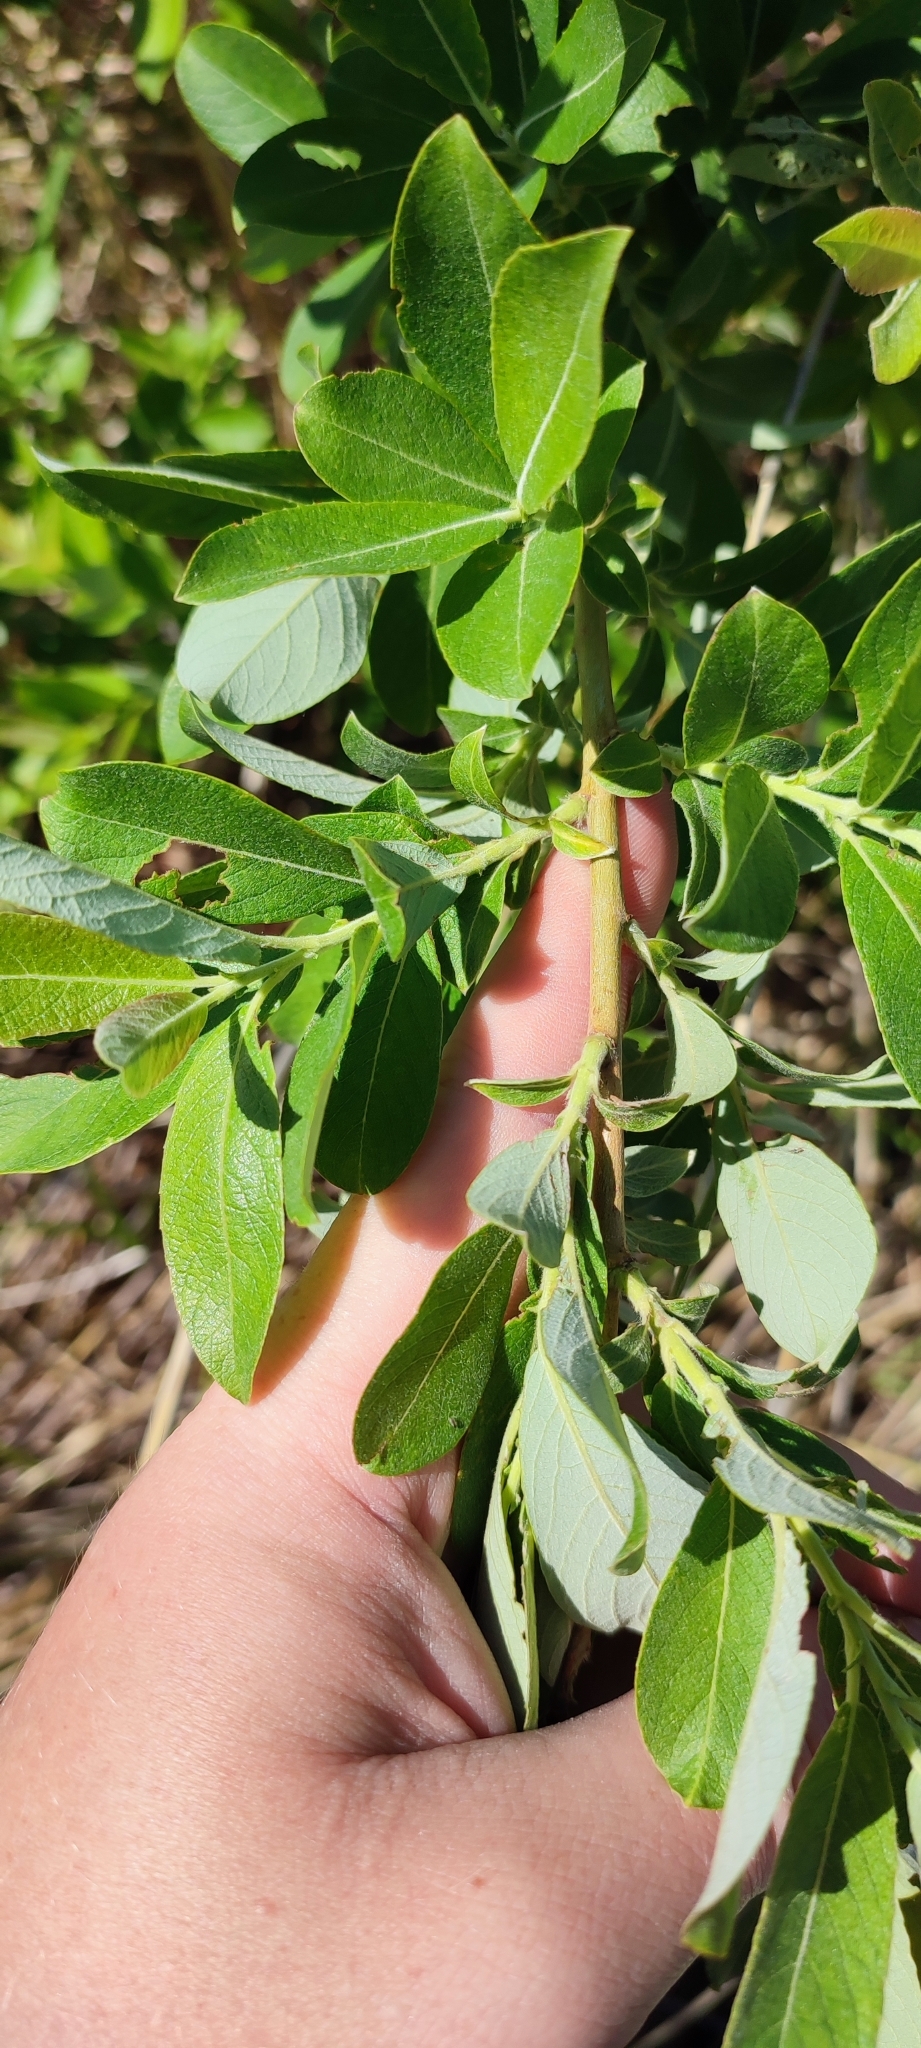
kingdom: Plantae
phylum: Tracheophyta
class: Magnoliopsida
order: Malpighiales
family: Salicaceae
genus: Salix
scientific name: Salix cinerea
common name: Common sallow
